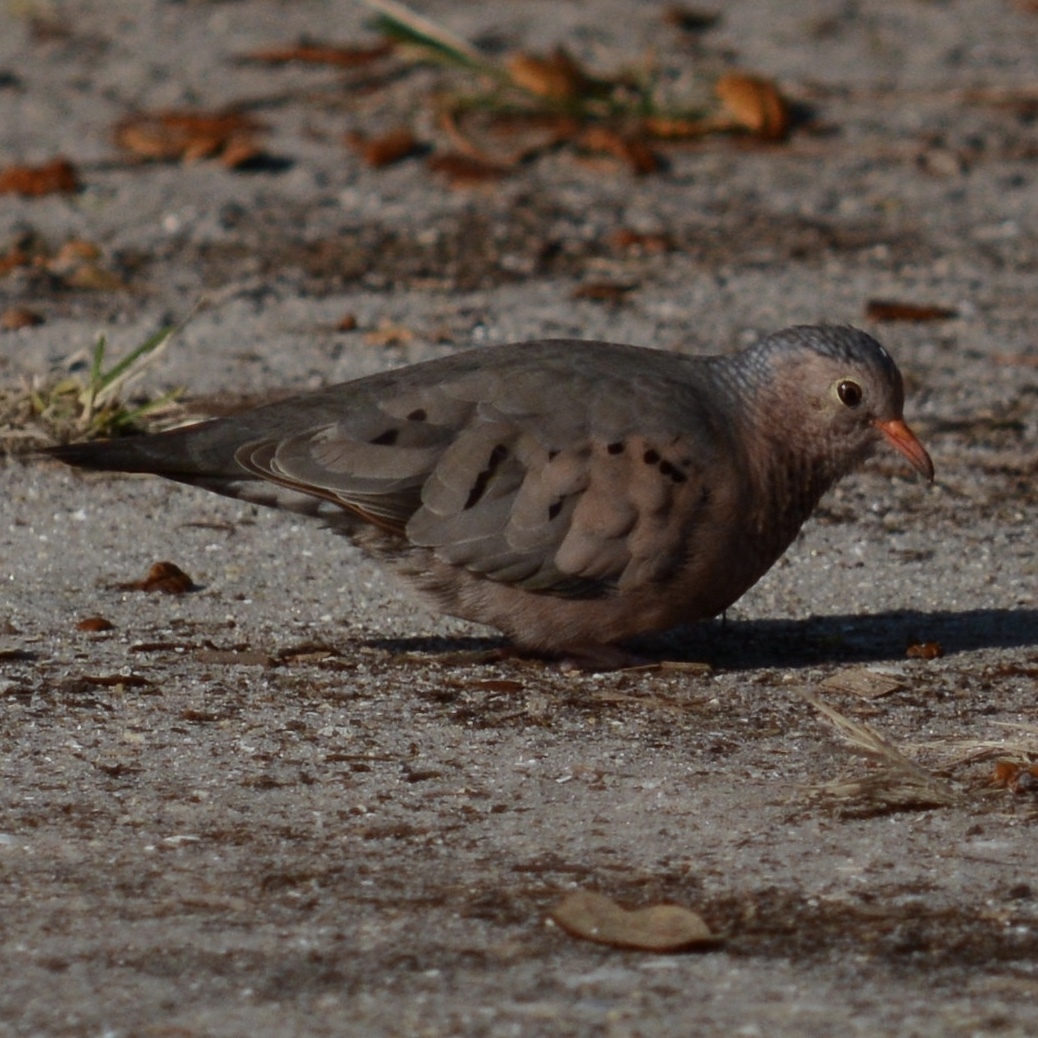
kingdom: Animalia
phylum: Chordata
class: Aves
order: Columbiformes
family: Columbidae
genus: Columbina
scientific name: Columbina passerina
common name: Common ground-dove
